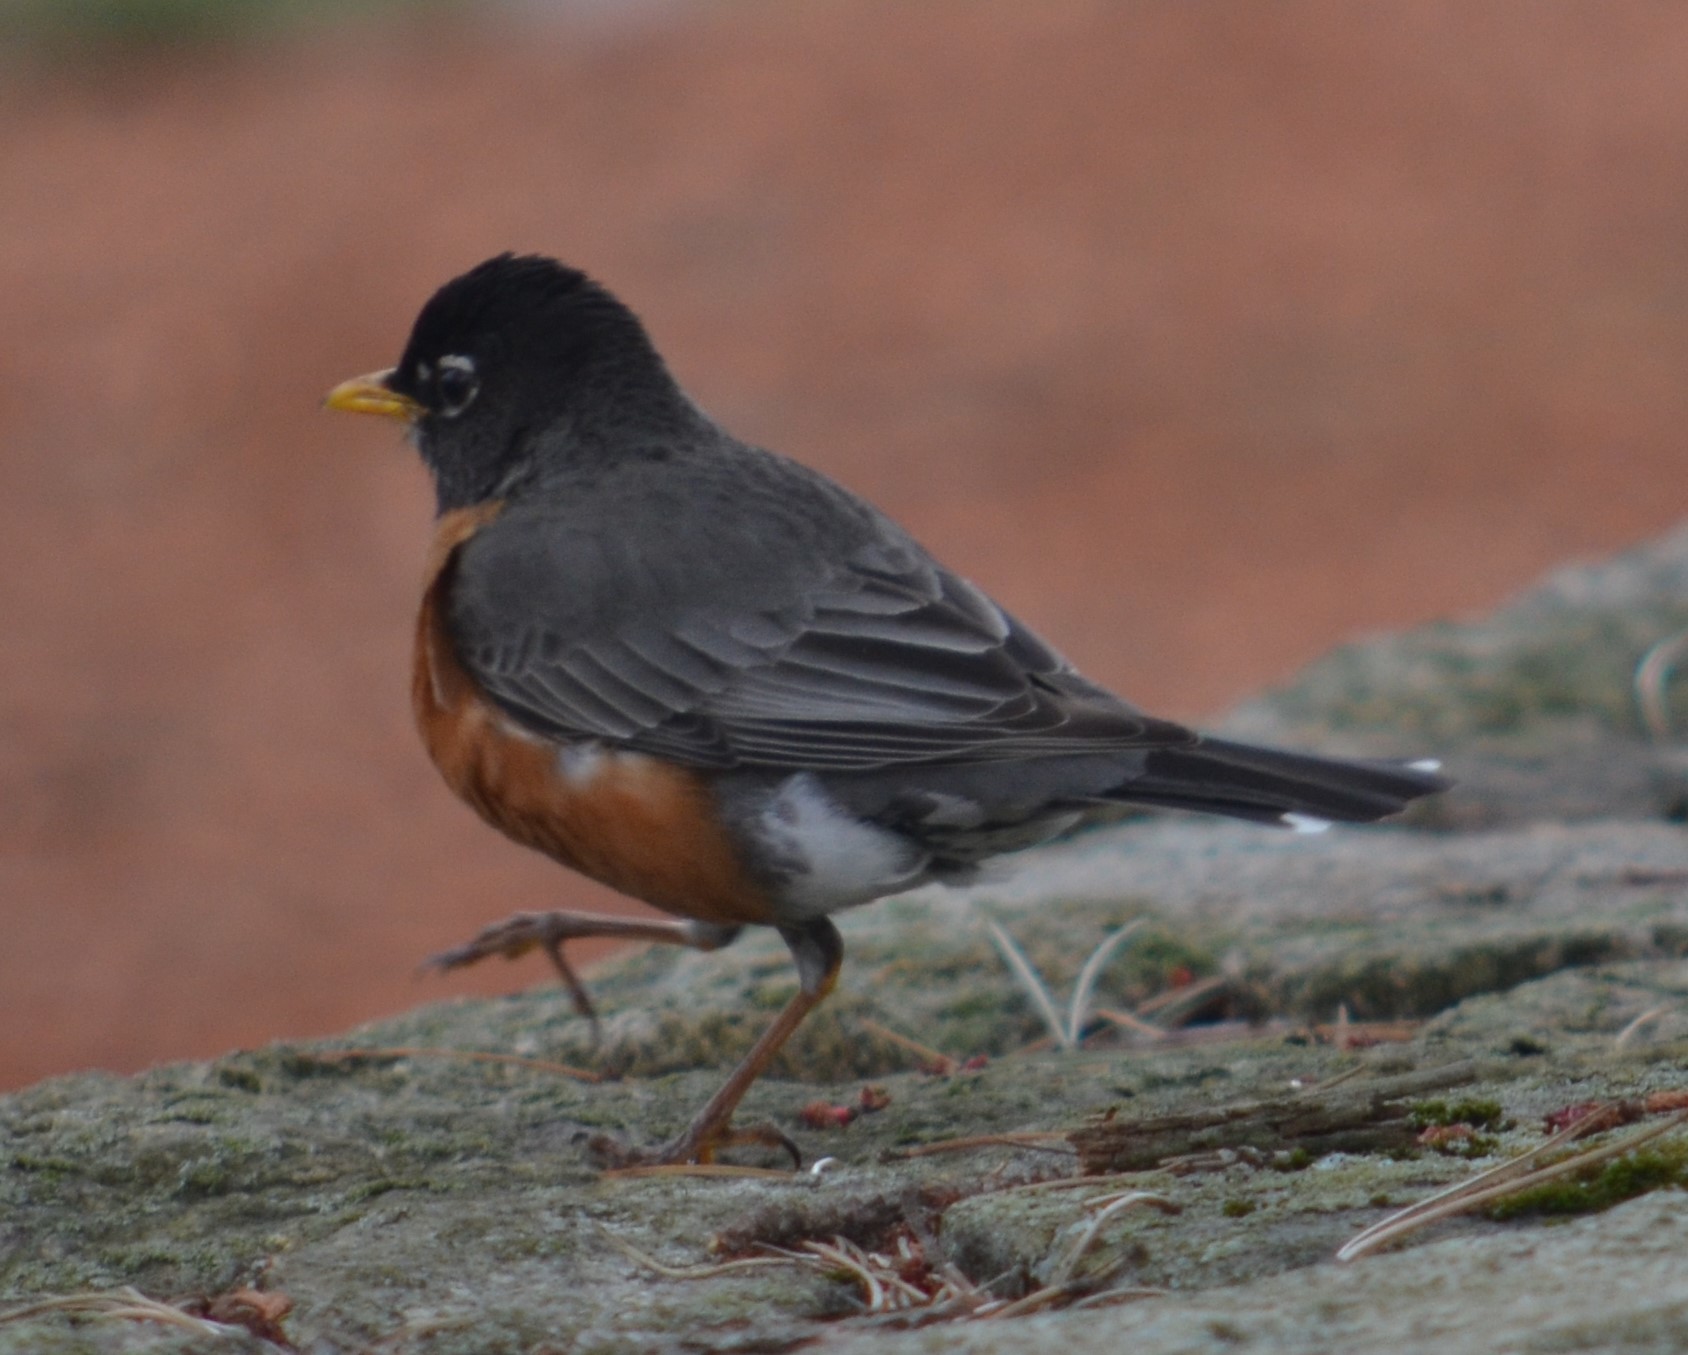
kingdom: Animalia
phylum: Chordata
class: Aves
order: Passeriformes
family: Turdidae
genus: Turdus
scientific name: Turdus migratorius
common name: American robin
